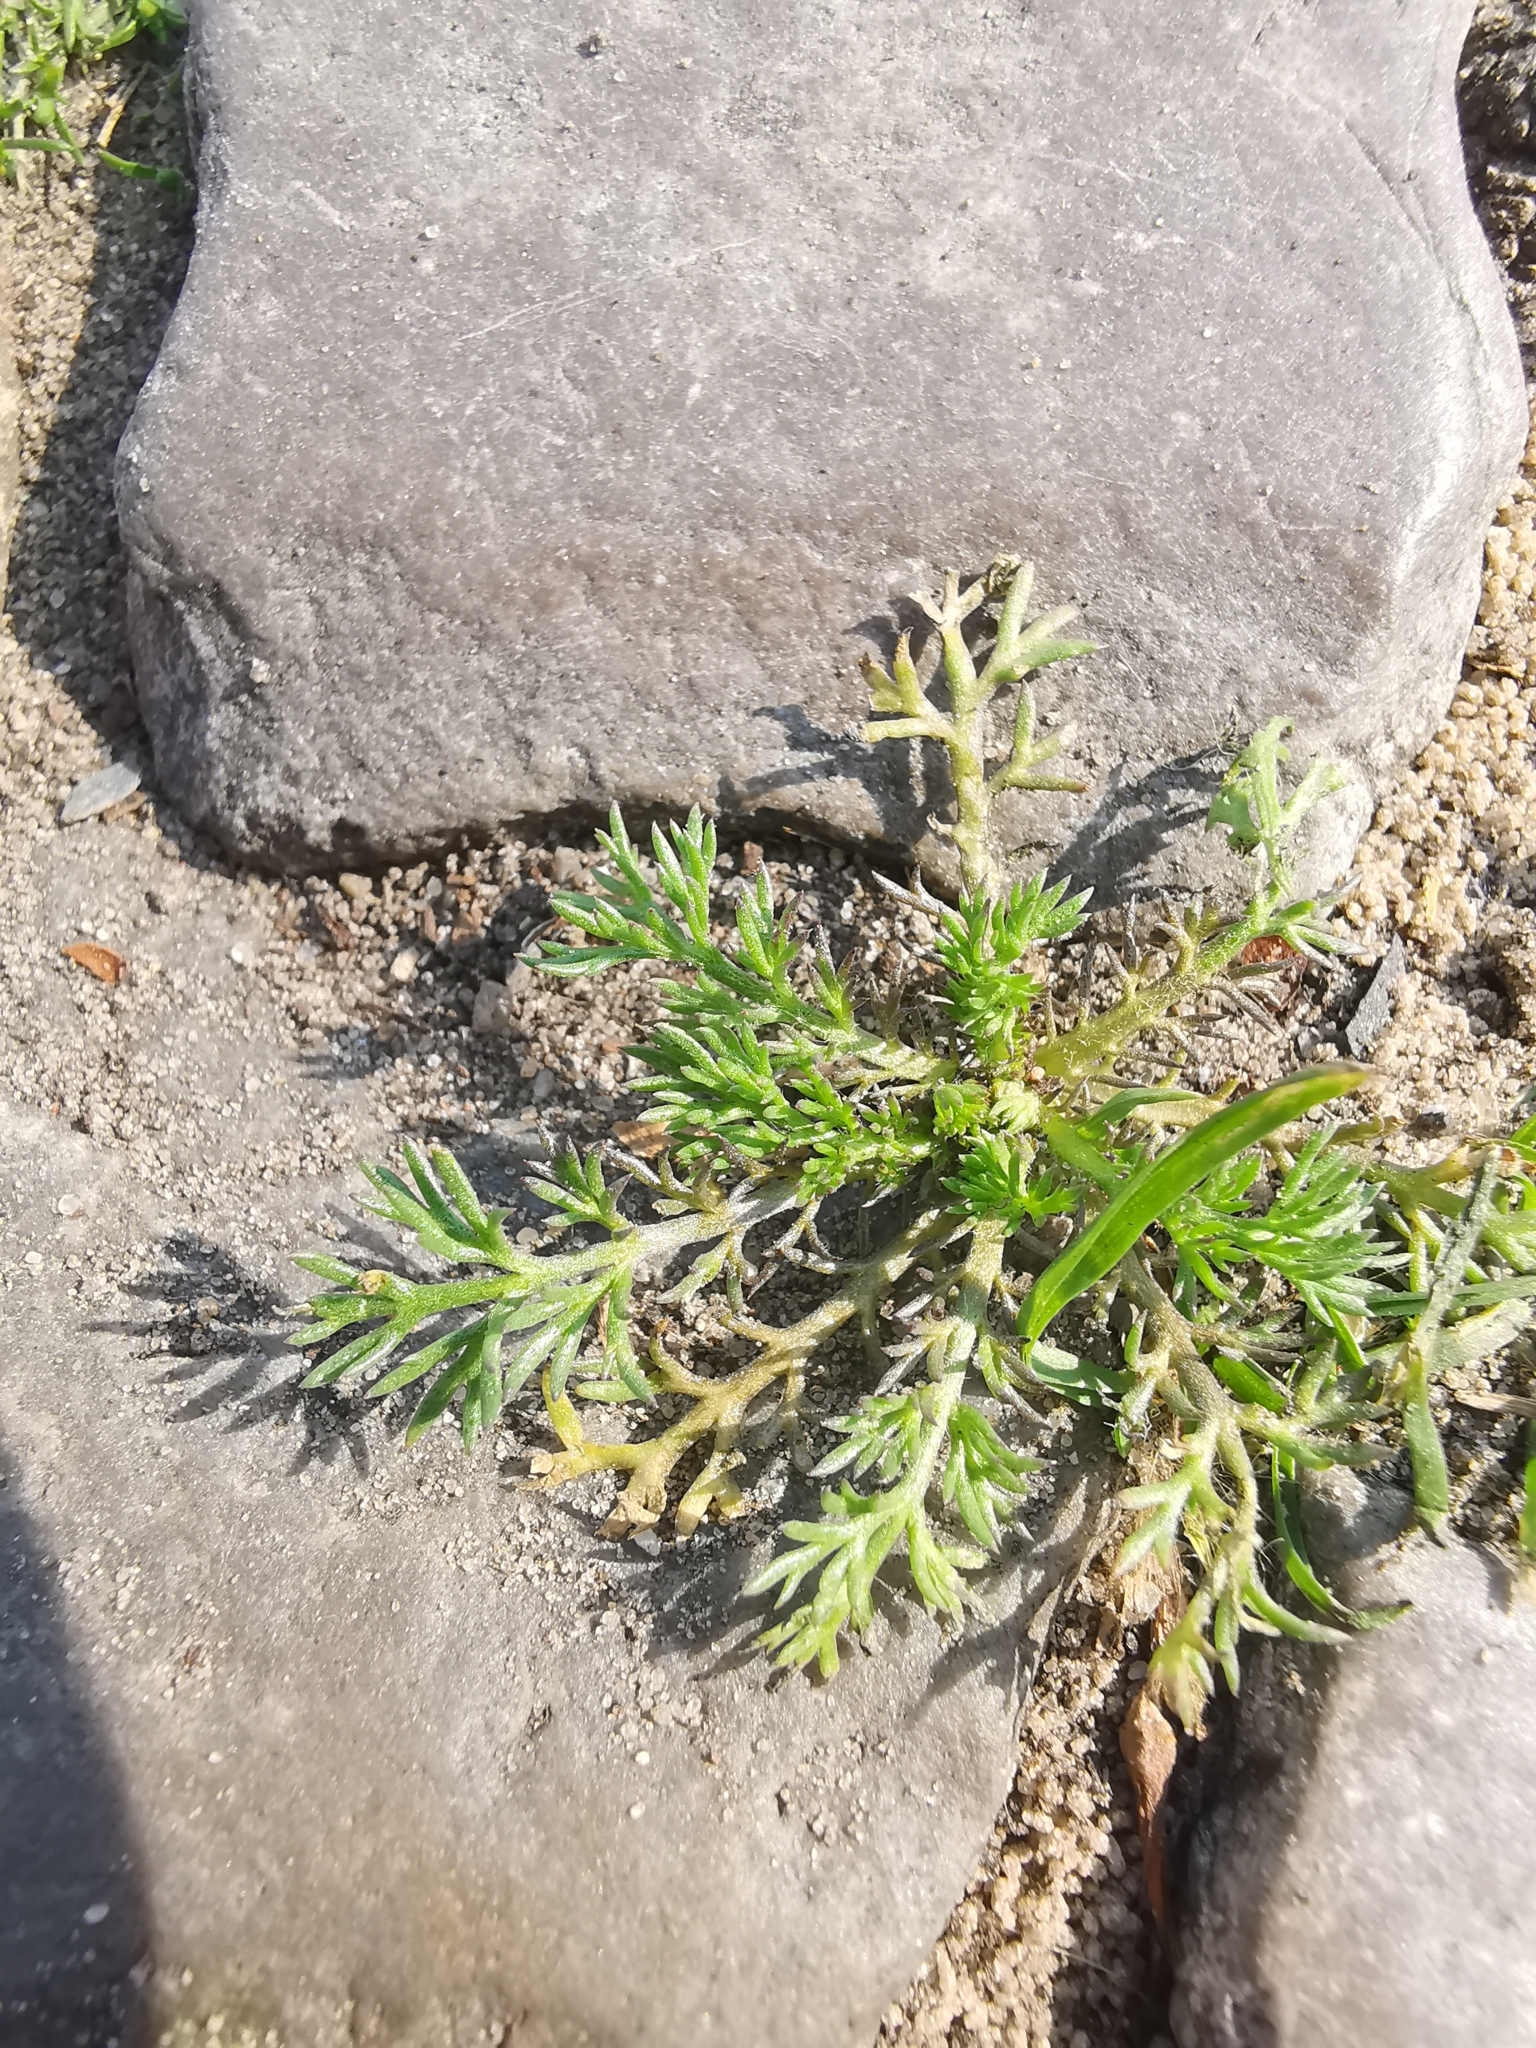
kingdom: Plantae
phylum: Tracheophyta
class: Magnoliopsida
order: Asterales
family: Asteraceae
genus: Matricaria
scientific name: Matricaria discoidea
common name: Disc mayweed
